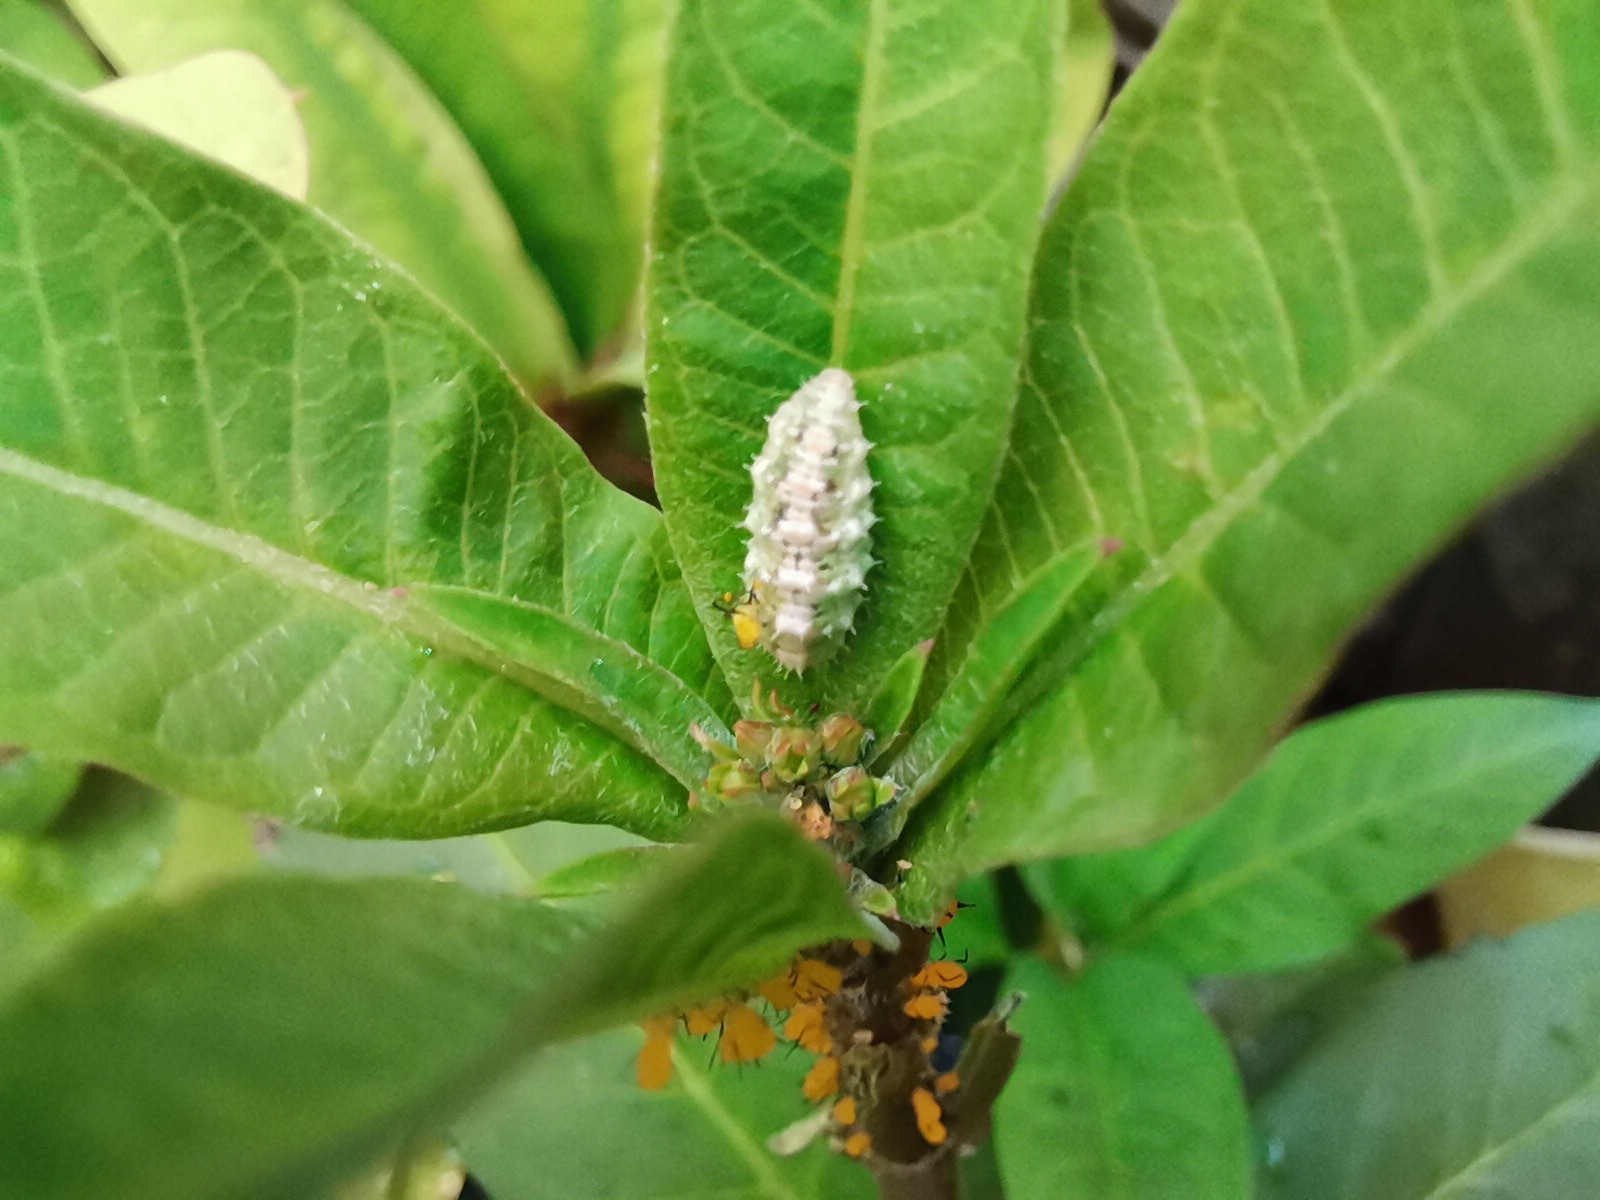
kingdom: Animalia
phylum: Arthropoda
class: Insecta
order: Hemiptera
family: Aphididae
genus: Aphis
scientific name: Aphis nerii
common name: Oleander aphid
